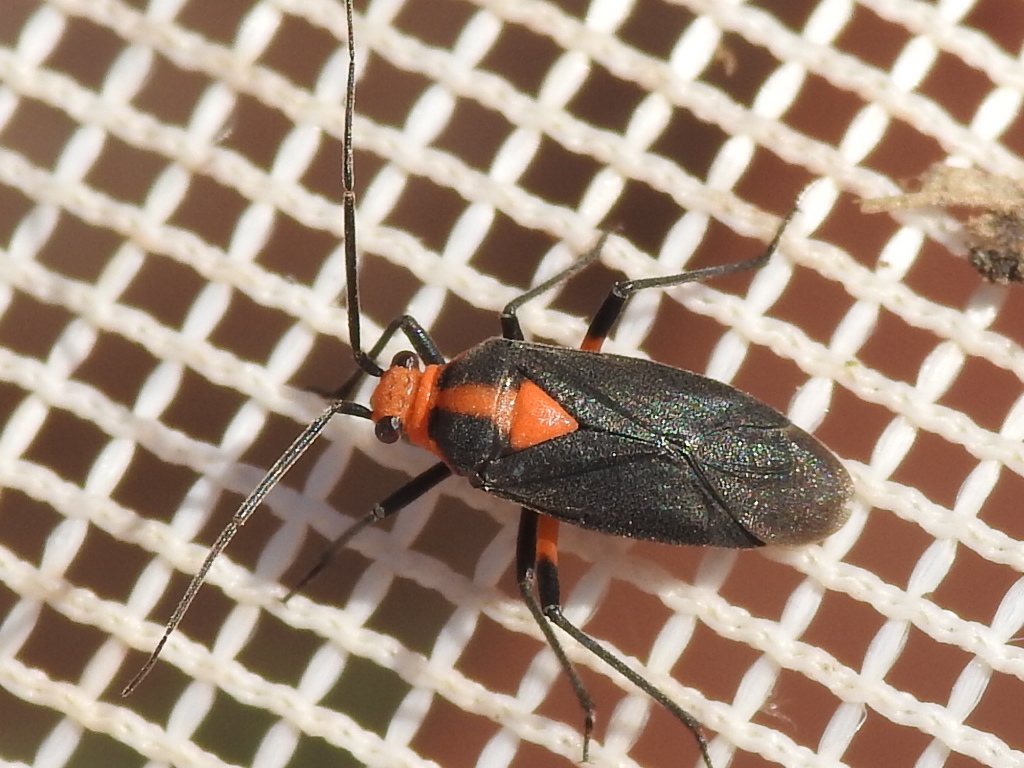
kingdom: Animalia
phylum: Arthropoda
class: Insecta
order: Hemiptera
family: Miridae
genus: Prepops
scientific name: Prepops rubrovittatus
